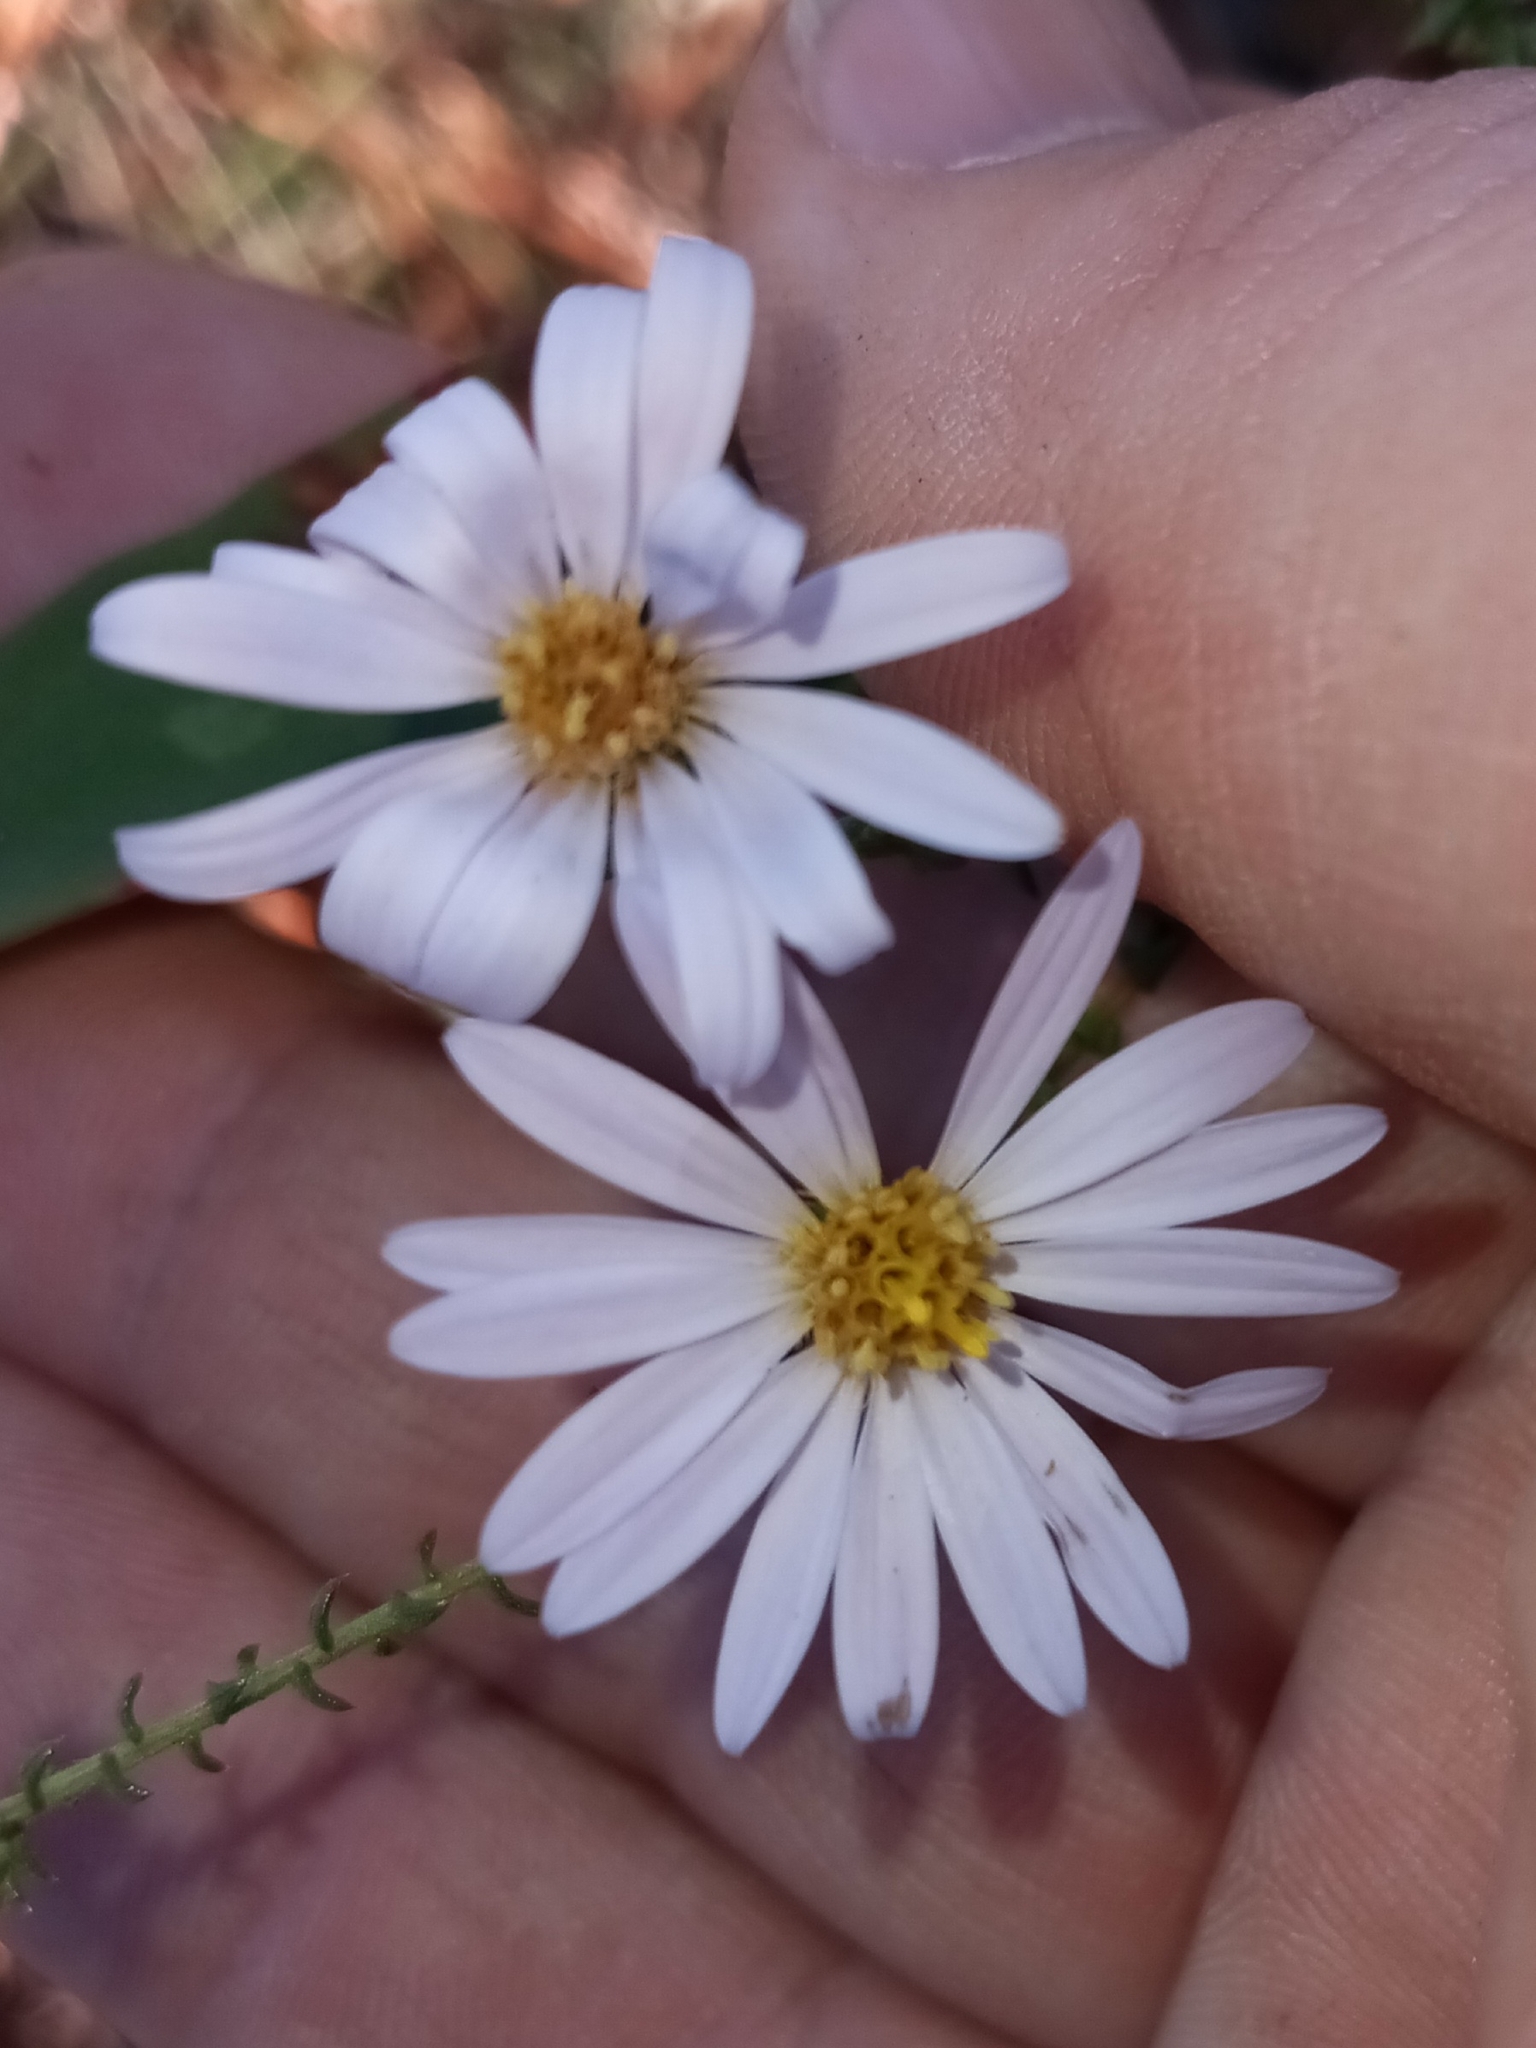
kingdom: Plantae
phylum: Tracheophyta
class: Magnoliopsida
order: Asterales
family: Asteraceae
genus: Symphyotrichum
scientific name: Symphyotrichum walteri
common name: Walter's aster
